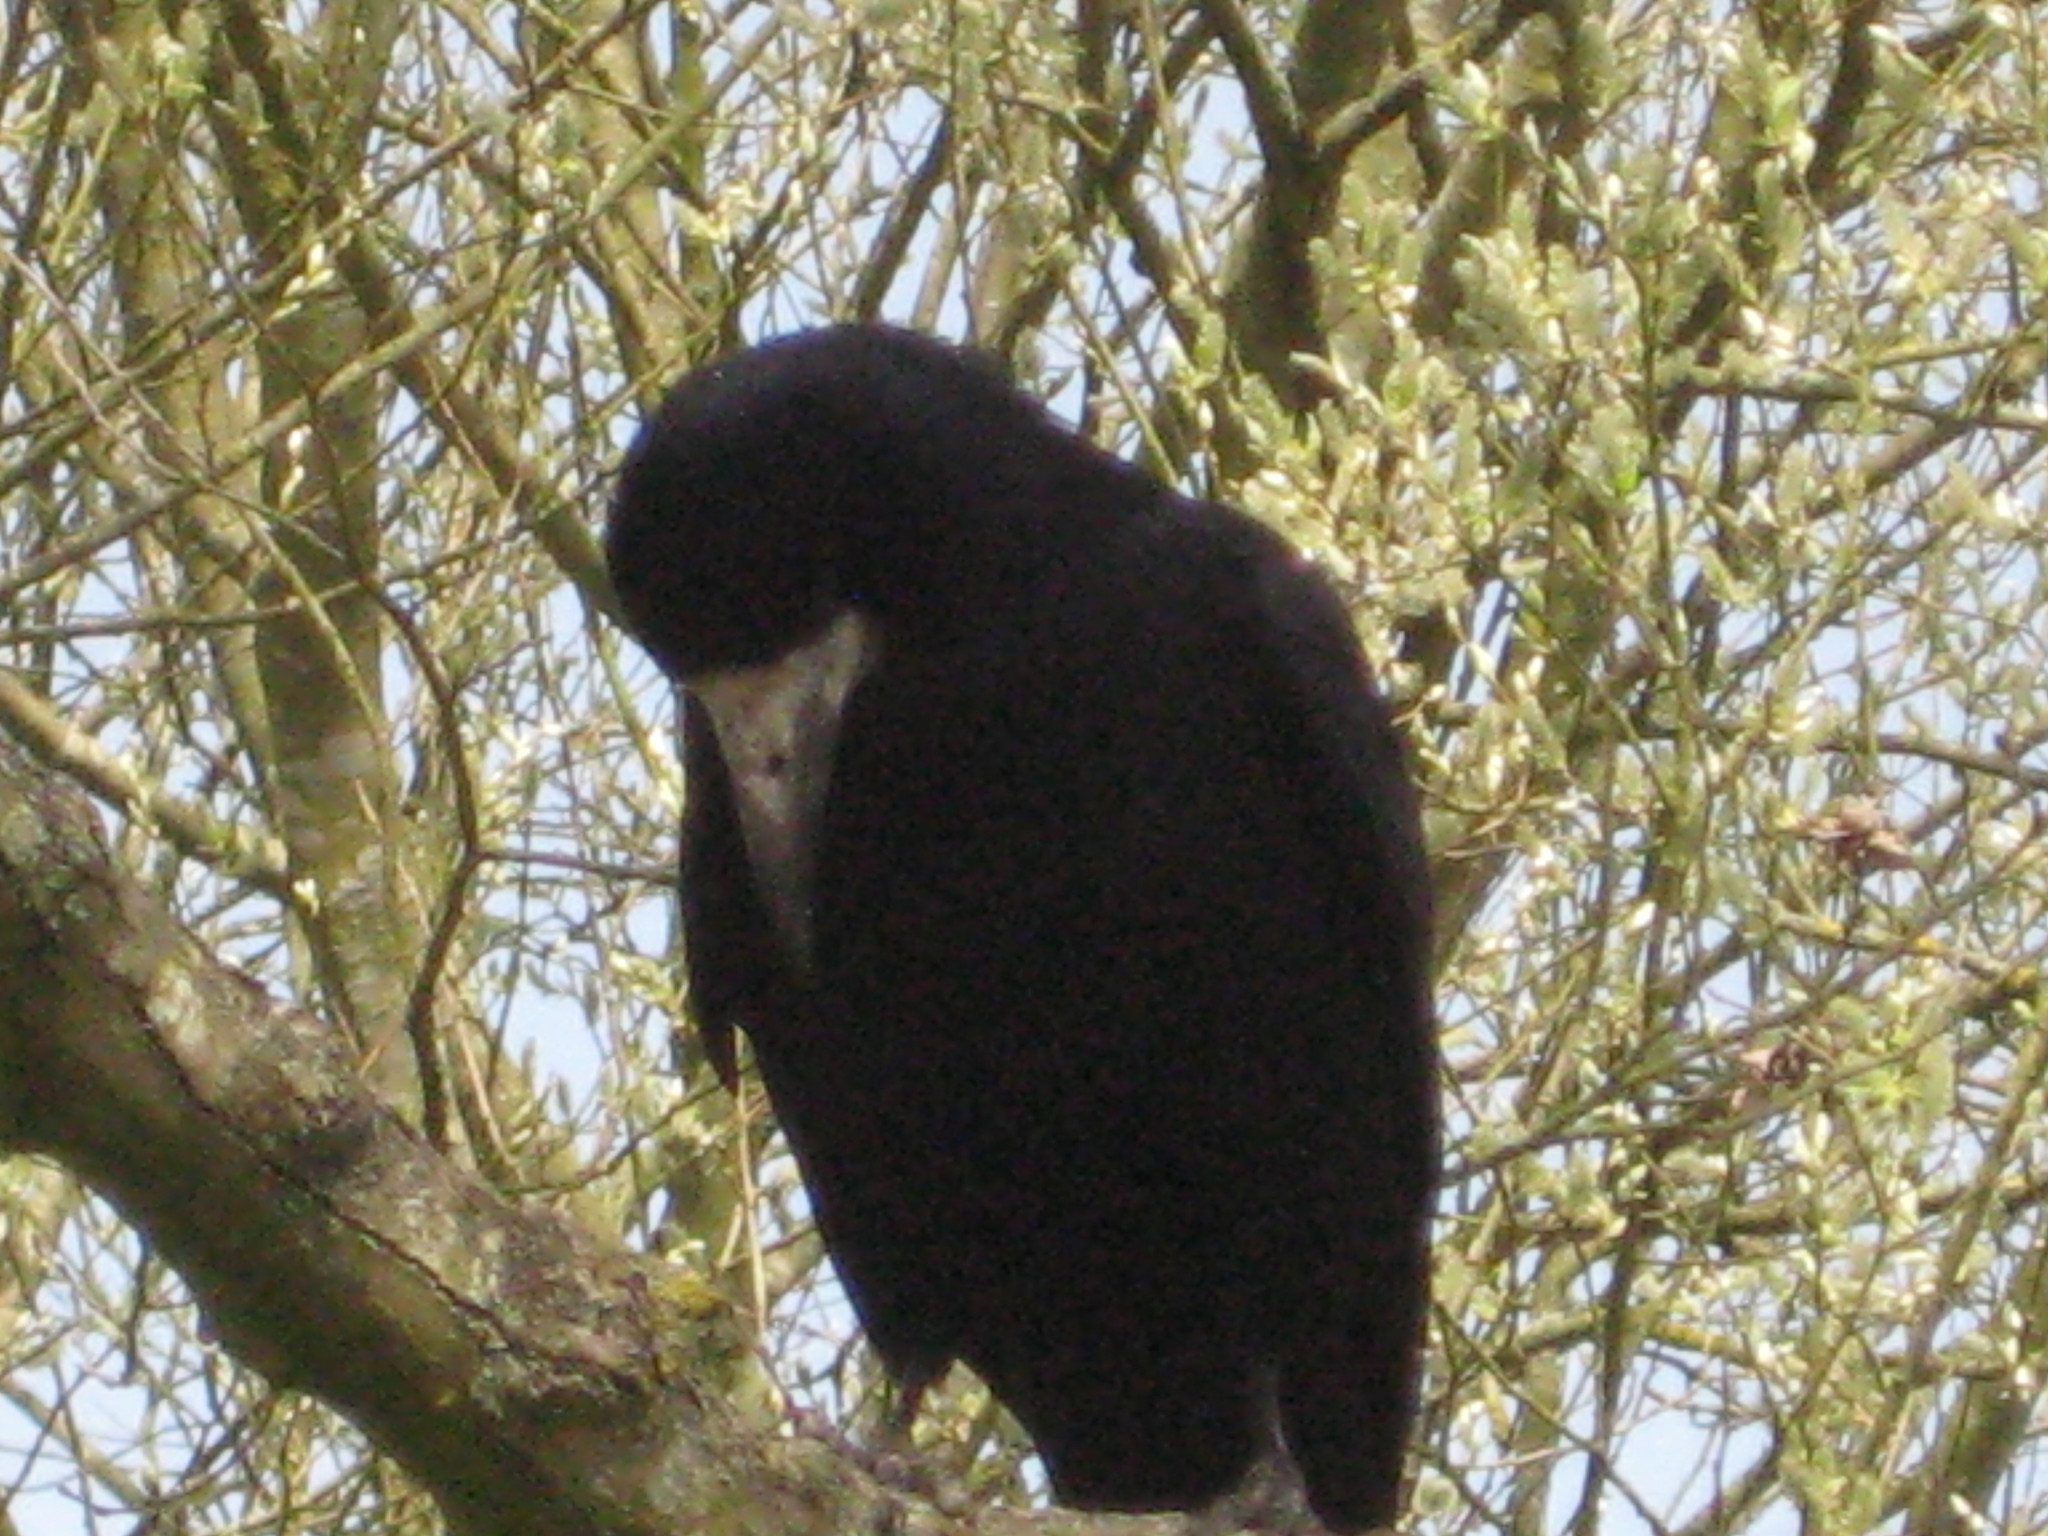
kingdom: Animalia
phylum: Chordata
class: Aves
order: Passeriformes
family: Corvidae
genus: Corvus
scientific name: Corvus frugilegus
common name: Rook
